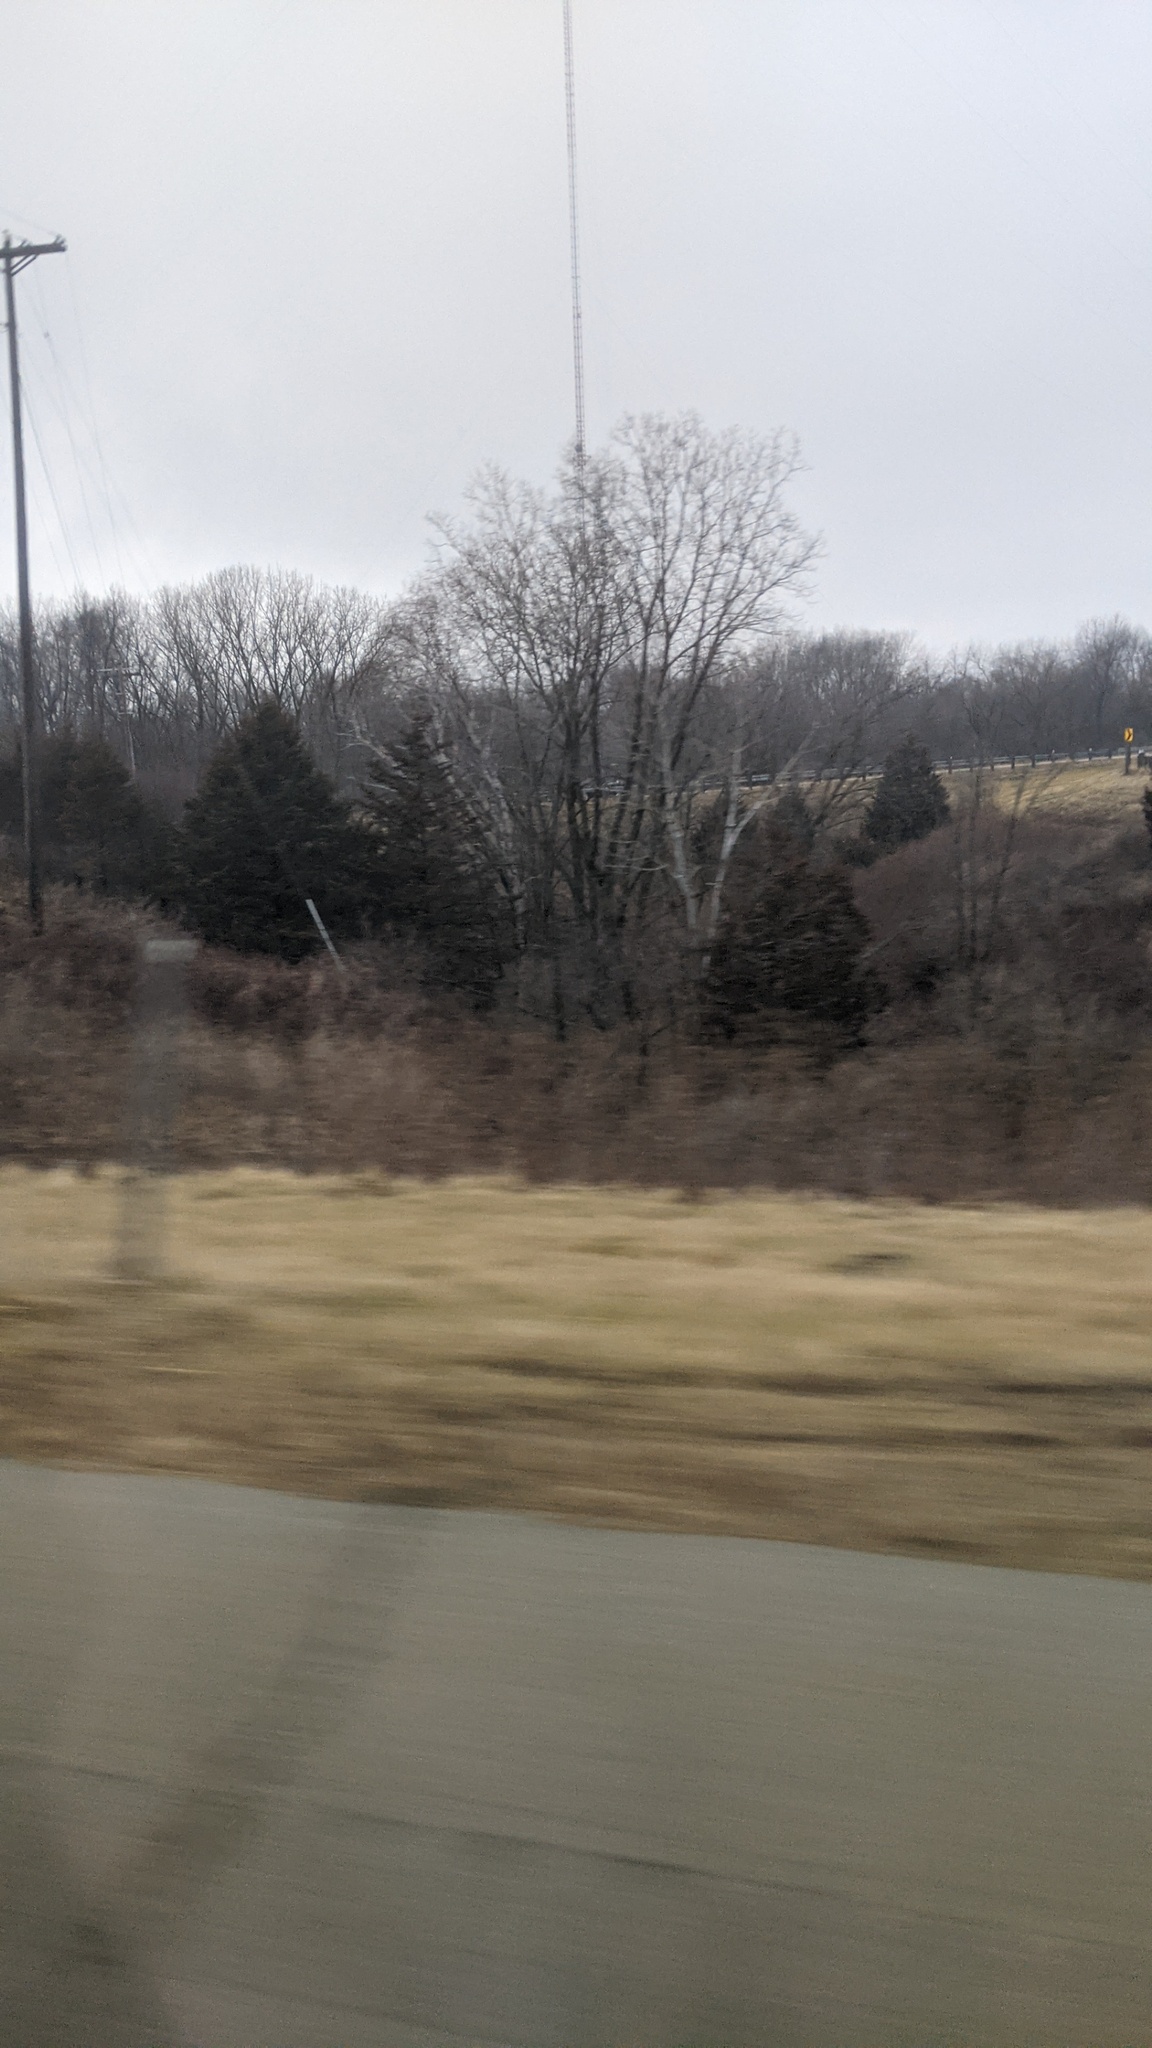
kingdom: Plantae
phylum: Tracheophyta
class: Pinopsida
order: Pinales
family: Cupressaceae
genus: Juniperus
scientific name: Juniperus virginiana
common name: Red juniper
